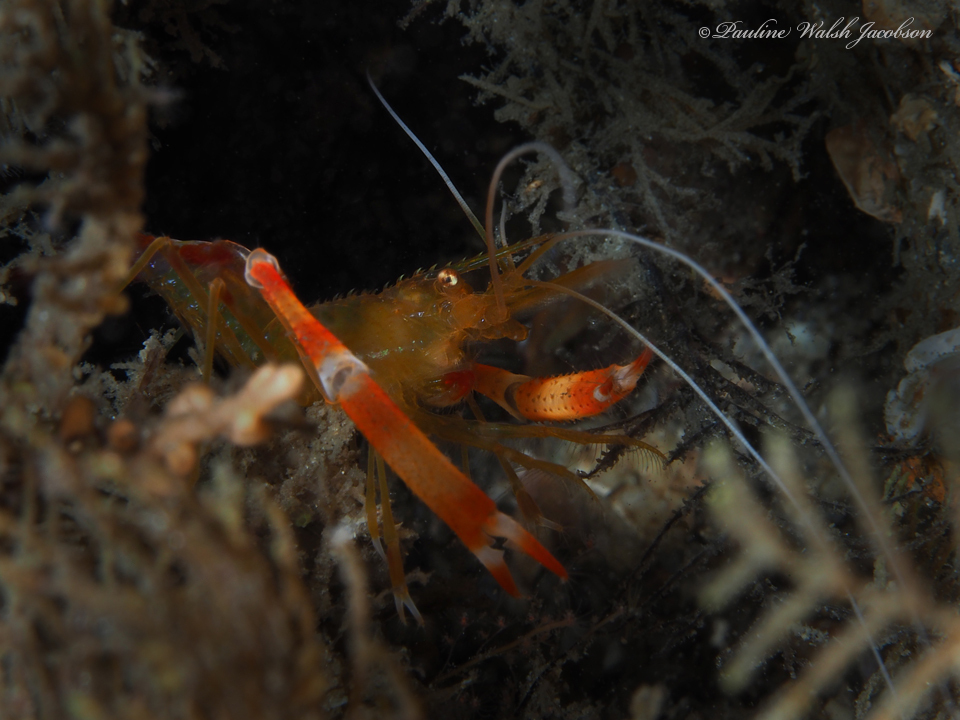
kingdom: Animalia
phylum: Arthropoda
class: Malacostraca
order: Decapoda
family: Stenopodidae
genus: Stenopus
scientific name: Stenopus scutellatus
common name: Golden coral shrimp
